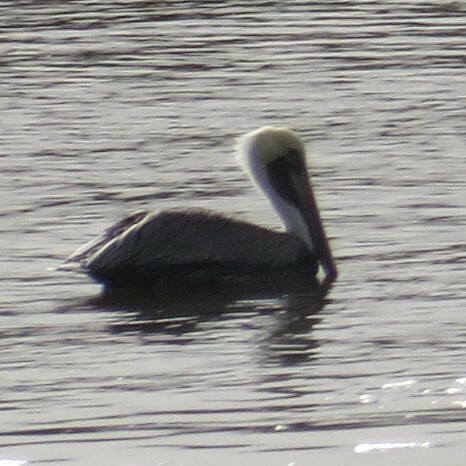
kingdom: Animalia
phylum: Chordata
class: Aves
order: Pelecaniformes
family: Pelecanidae
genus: Pelecanus
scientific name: Pelecanus occidentalis
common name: Brown pelican
